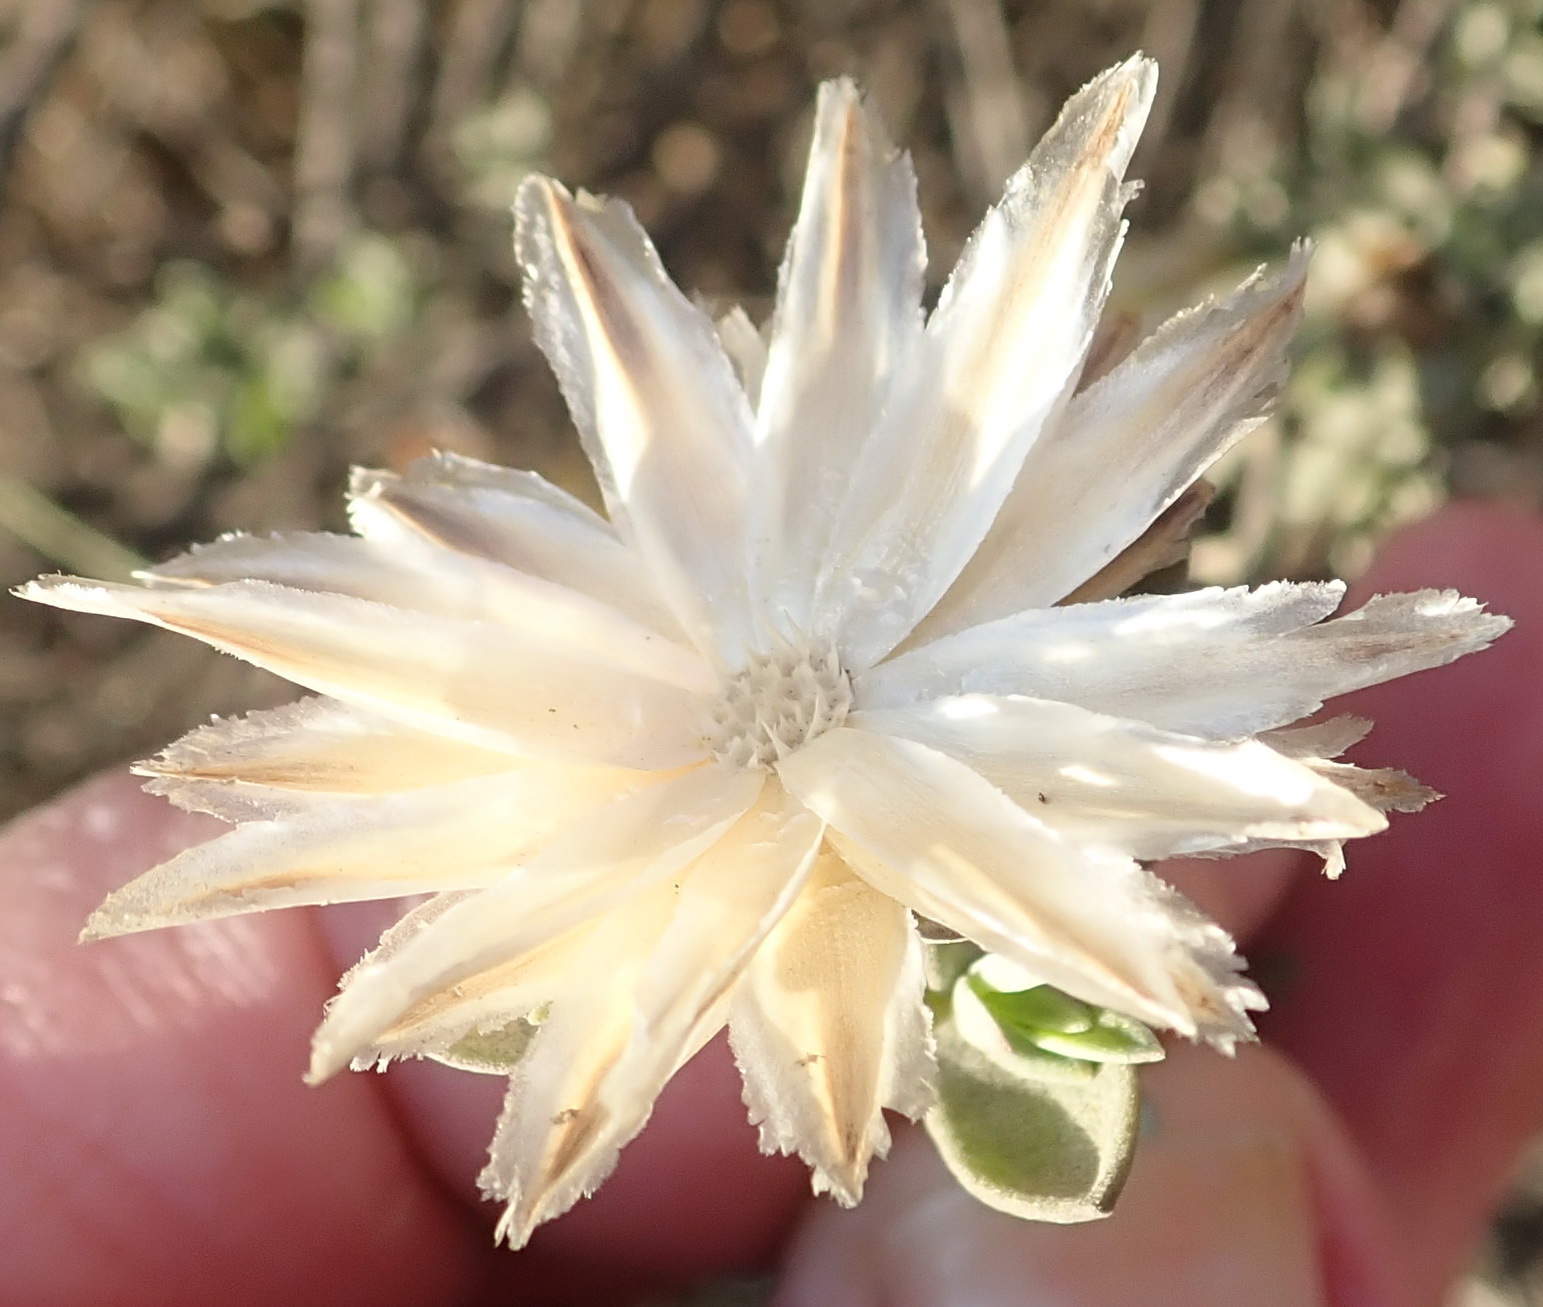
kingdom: Plantae
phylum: Tracheophyta
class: Magnoliopsida
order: Asterales
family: Asteraceae
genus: Pteronia
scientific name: Pteronia membranacea
